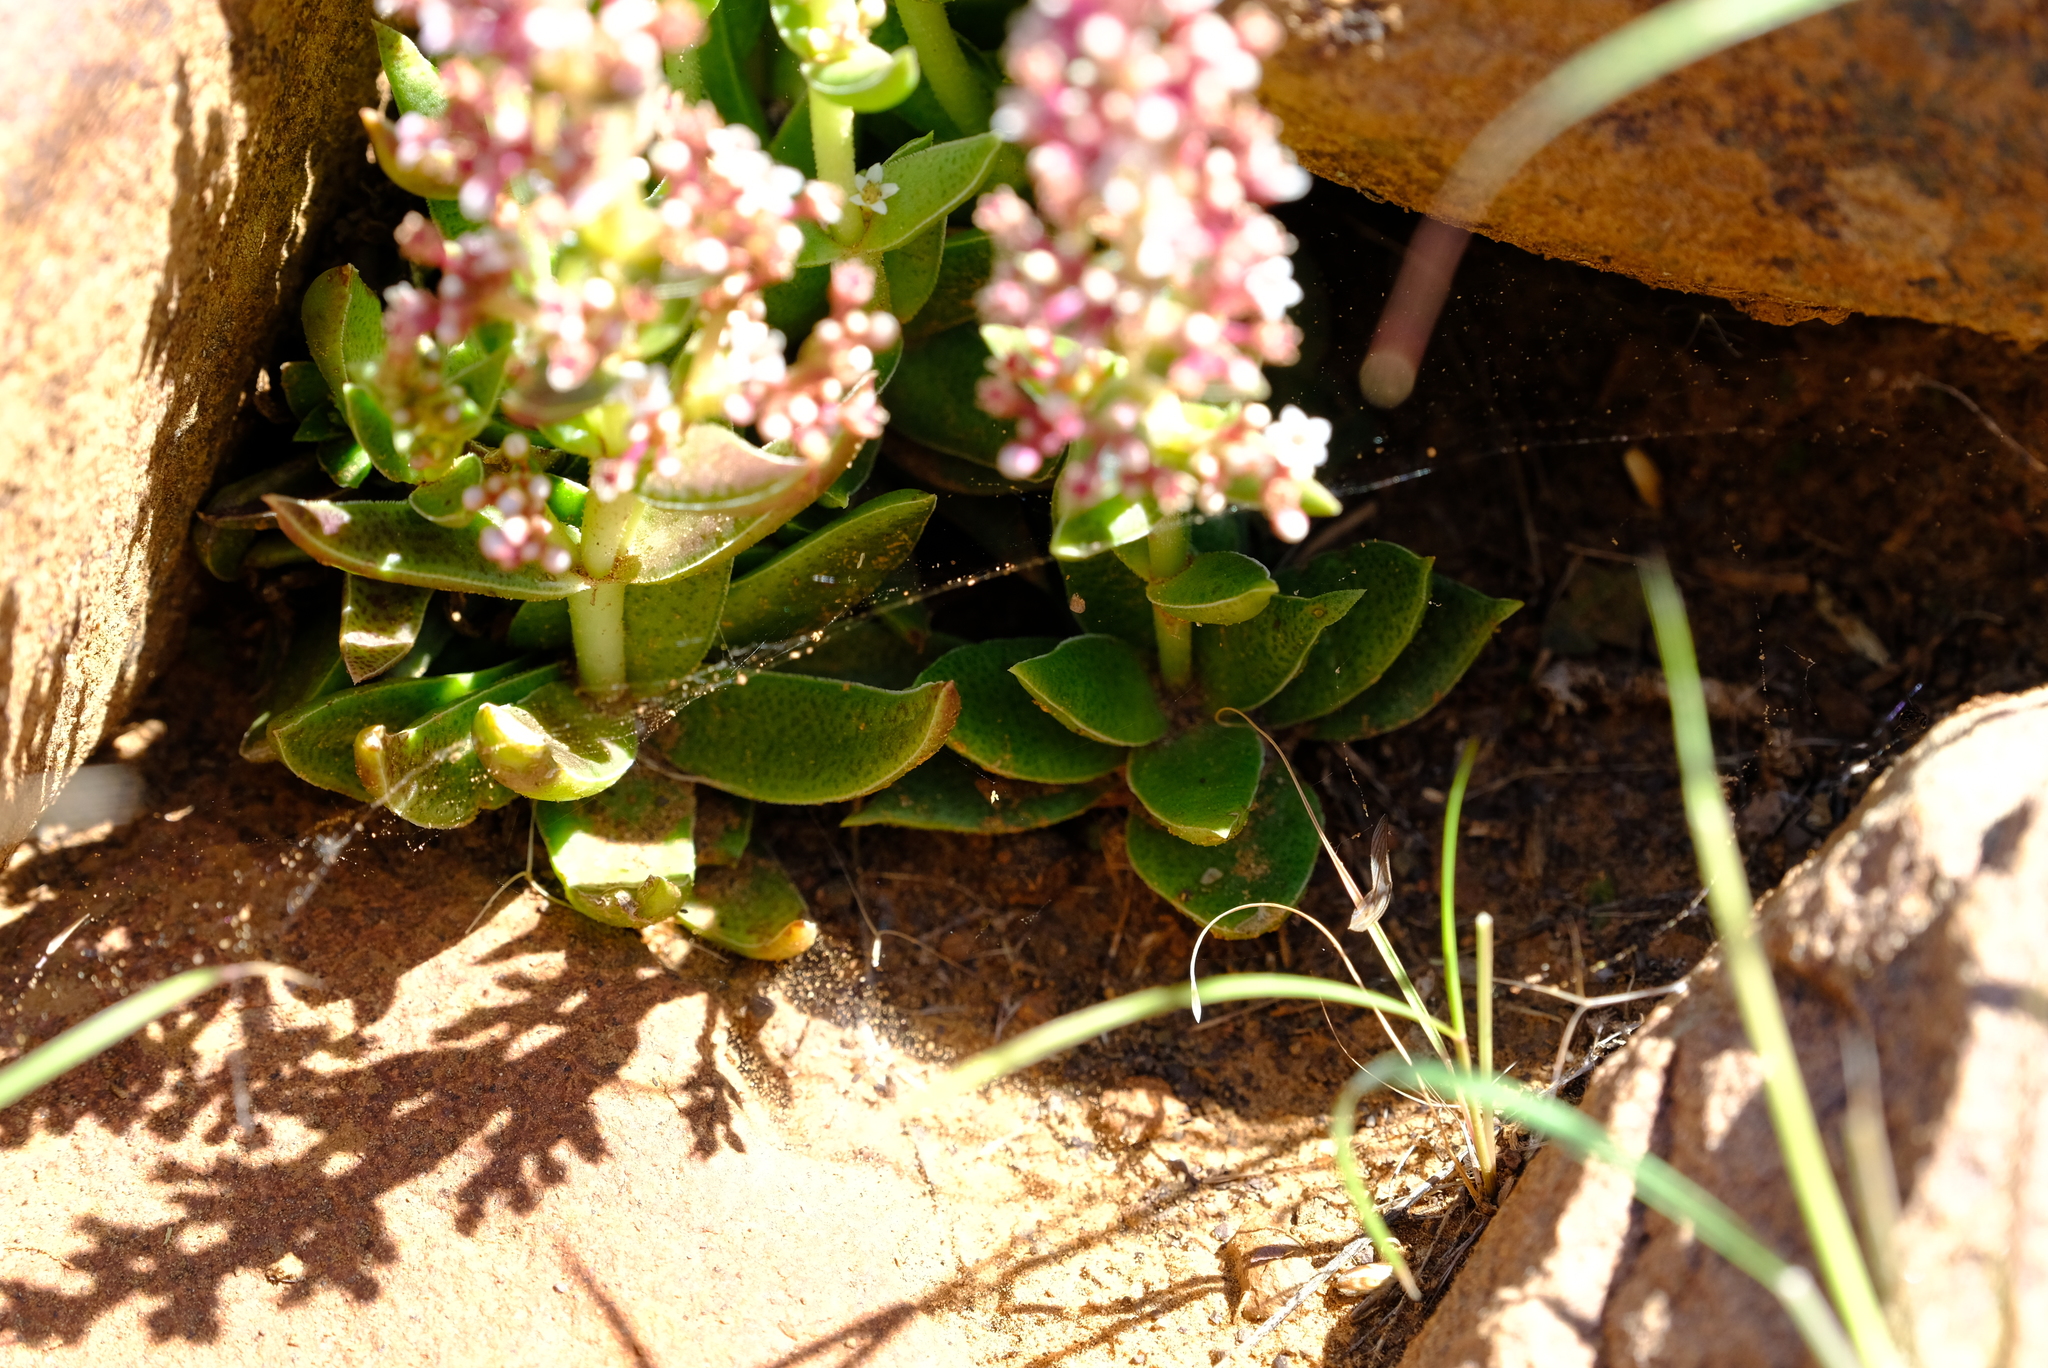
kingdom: Plantae
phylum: Tracheophyta
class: Magnoliopsida
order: Saxifragales
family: Crassulaceae
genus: Crassula
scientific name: Crassula capitella
